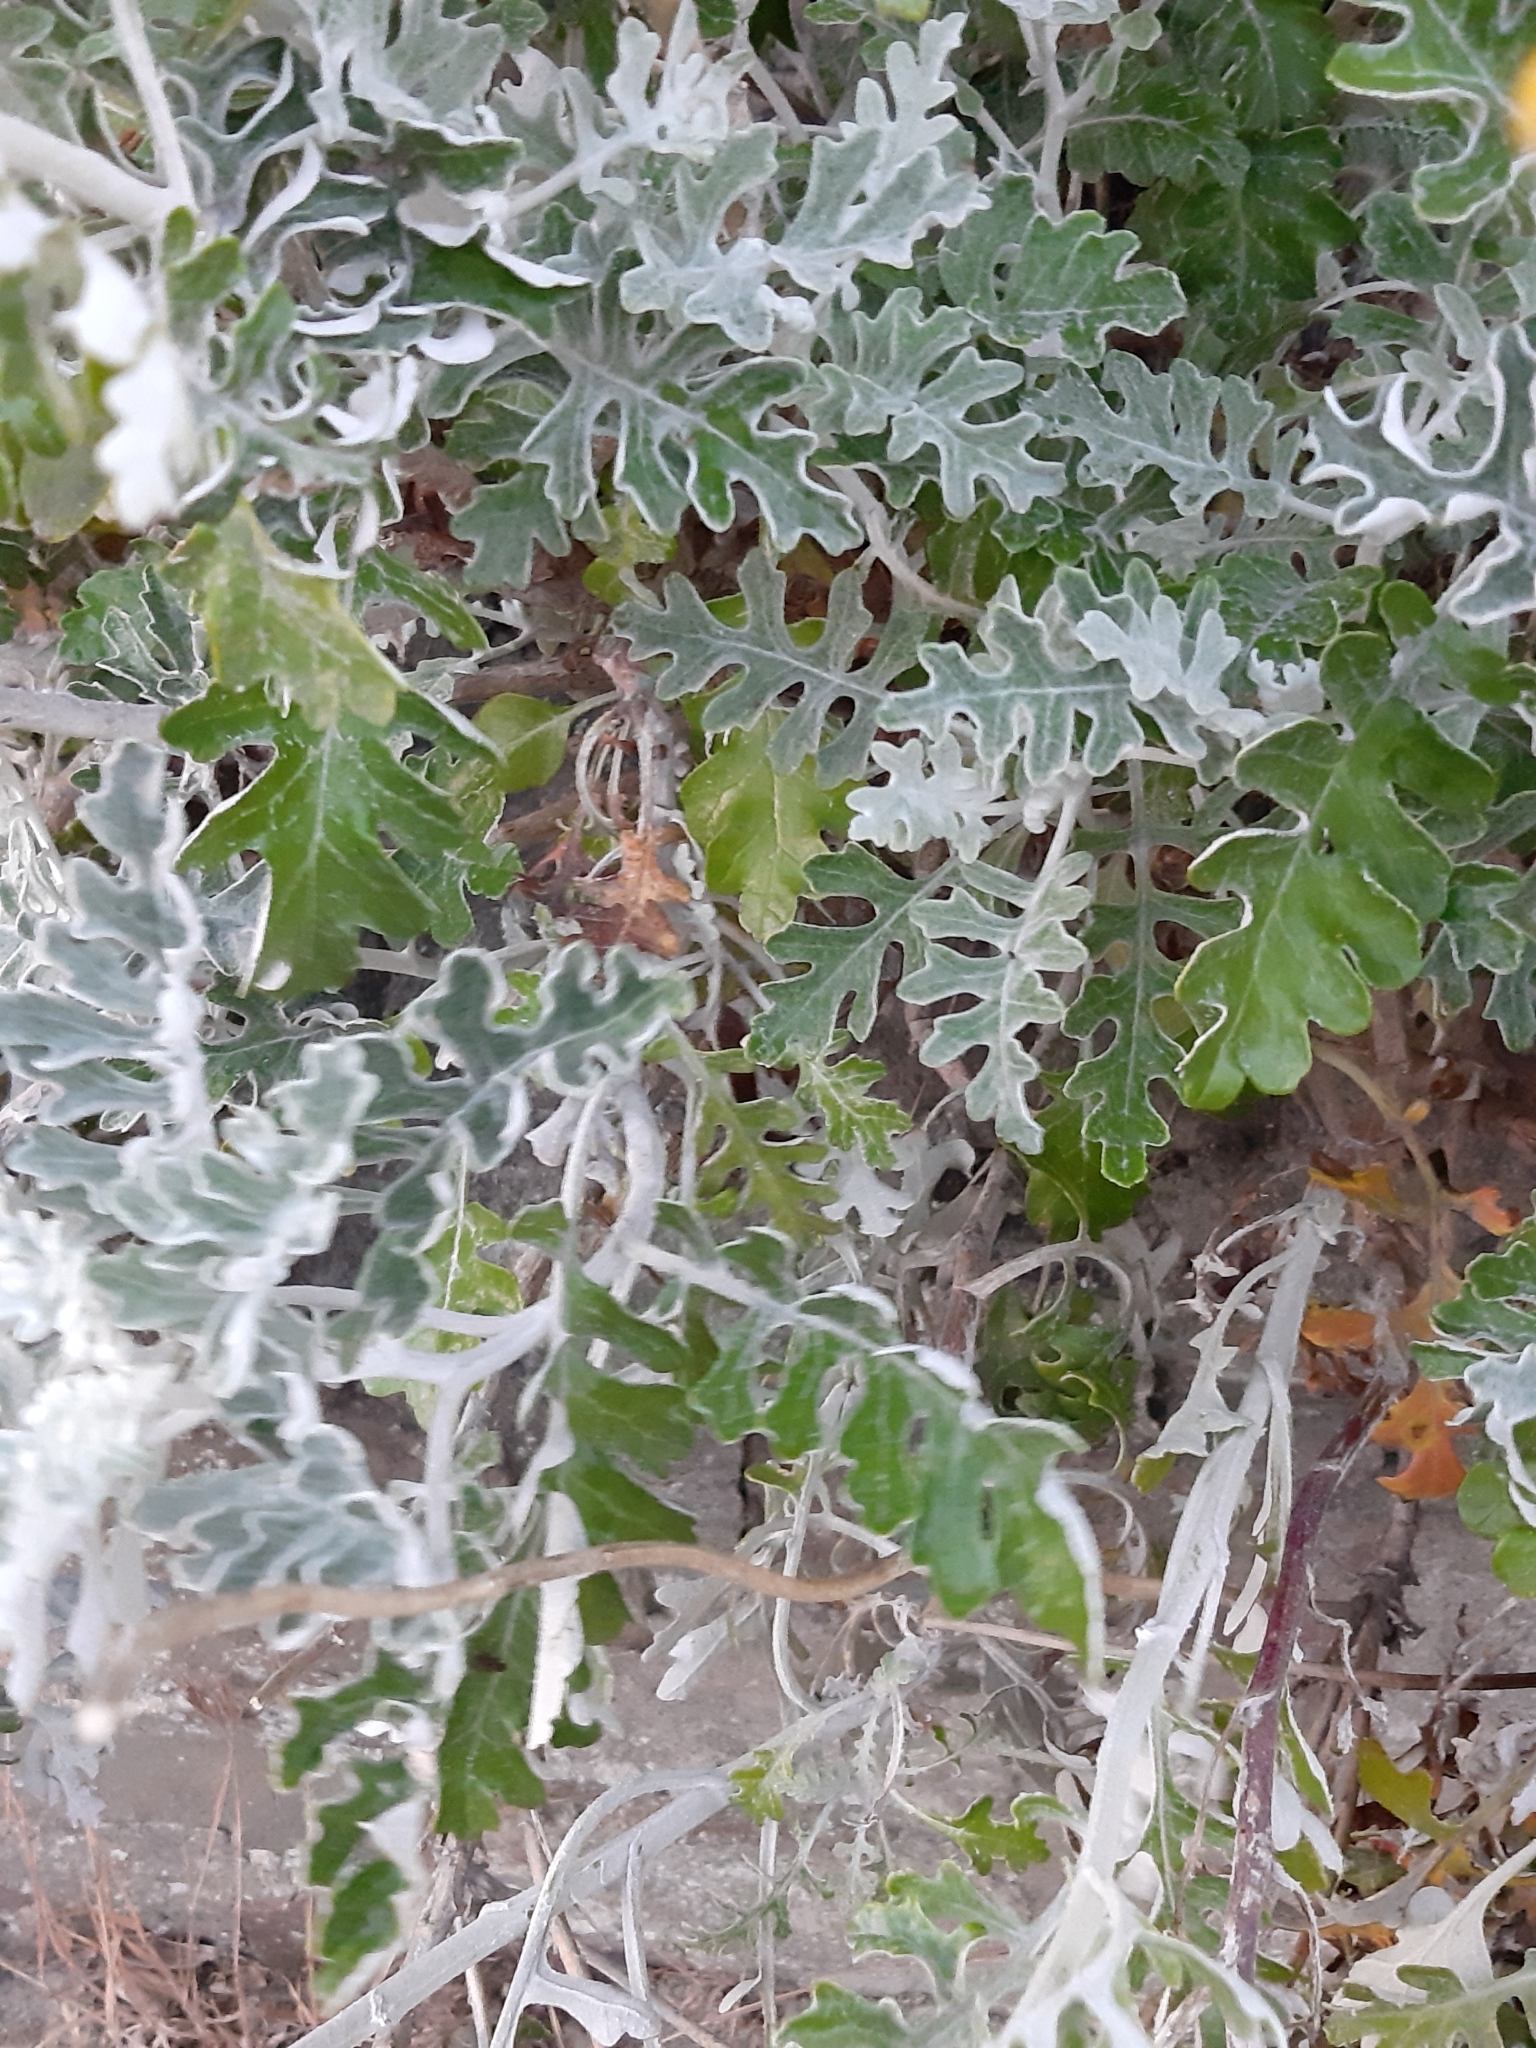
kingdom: Plantae
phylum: Tracheophyta
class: Magnoliopsida
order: Asterales
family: Asteraceae
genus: Jacobaea
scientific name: Jacobaea maritima
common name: Silver ragwort
